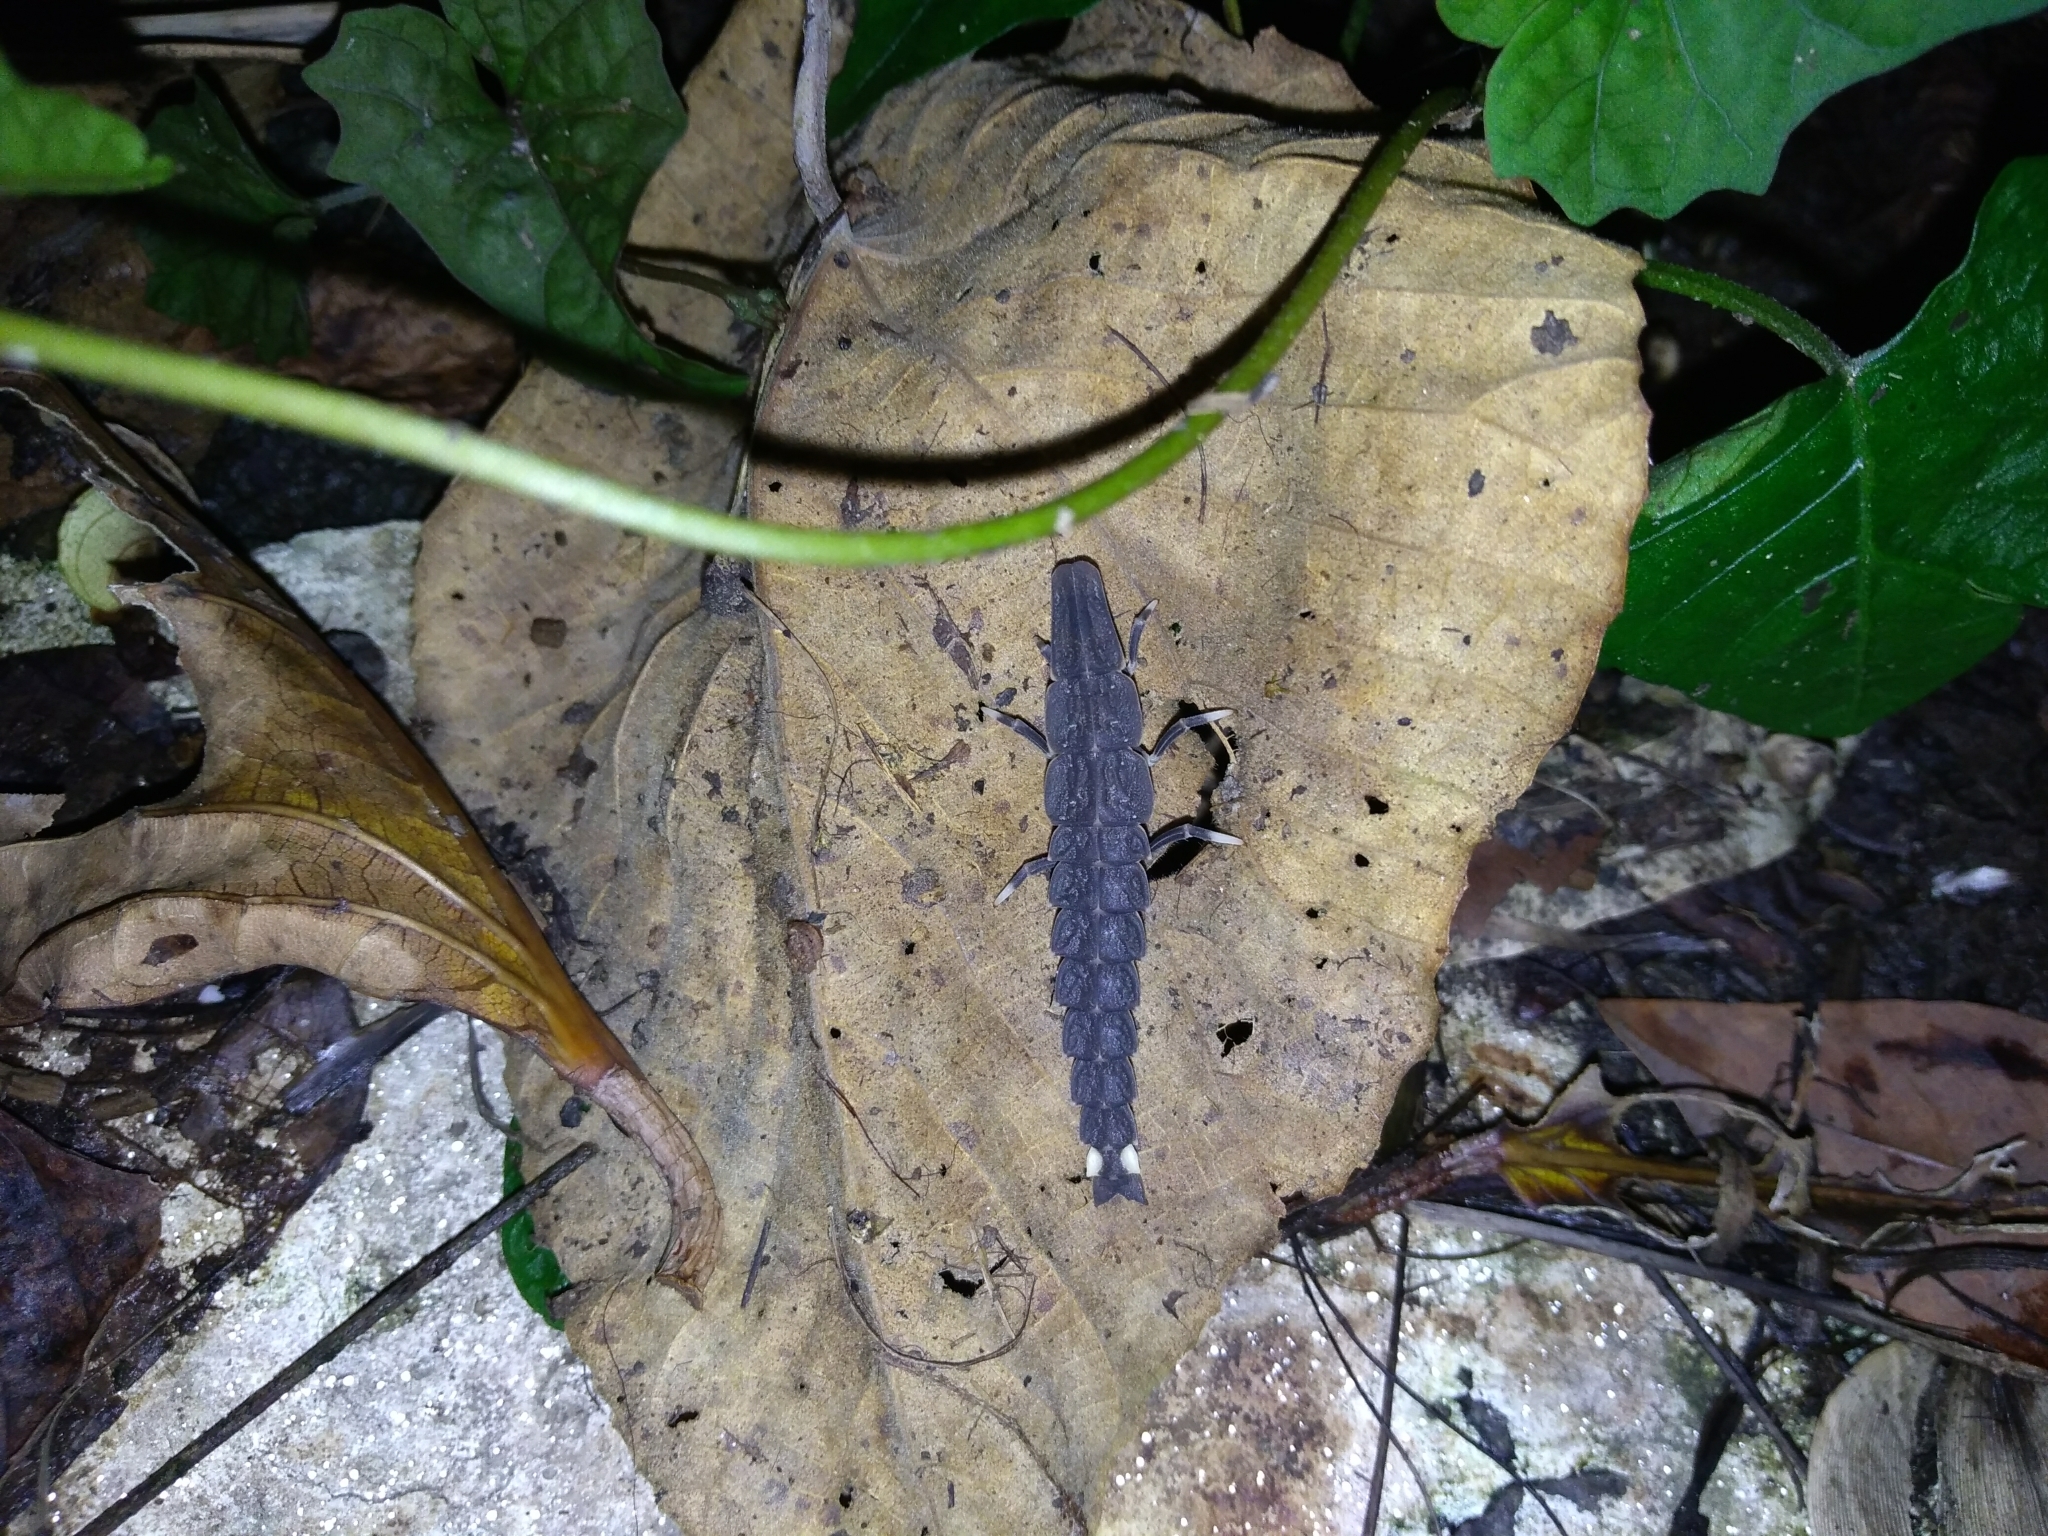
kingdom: Animalia
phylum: Arthropoda
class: Insecta
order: Coleoptera
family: Lampyridae
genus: Pyrocoelia
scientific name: Pyrocoelia praetexta
